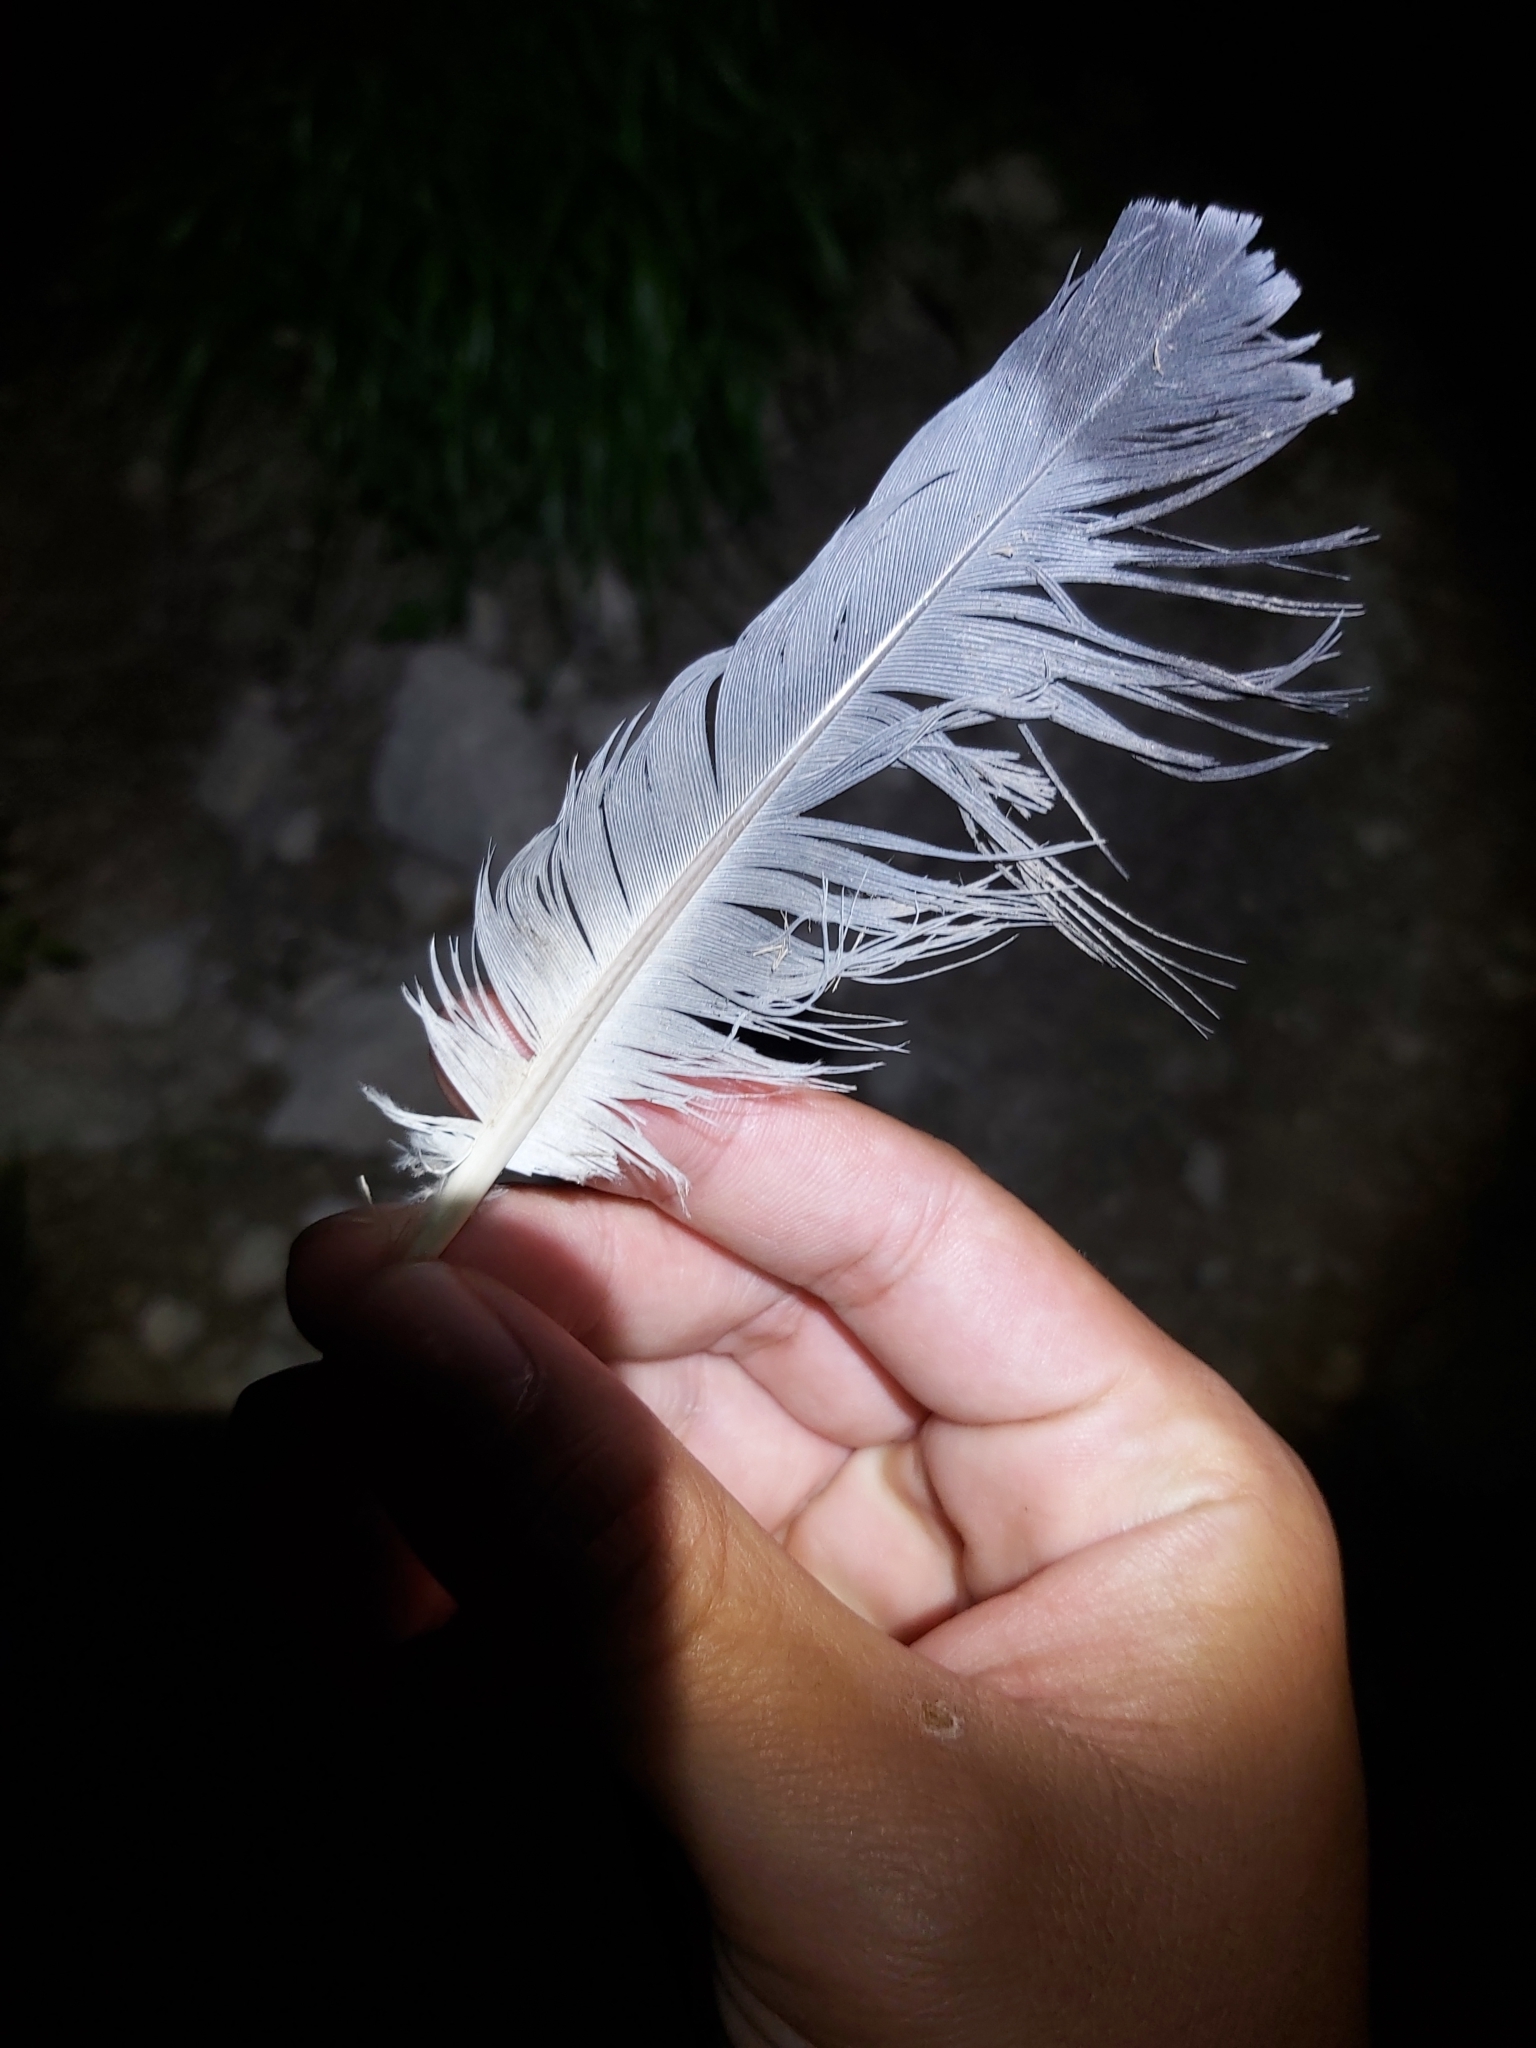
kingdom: Animalia
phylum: Chordata
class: Aves
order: Columbiformes
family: Columbidae
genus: Columba
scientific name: Columba livia
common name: Rock pigeon
